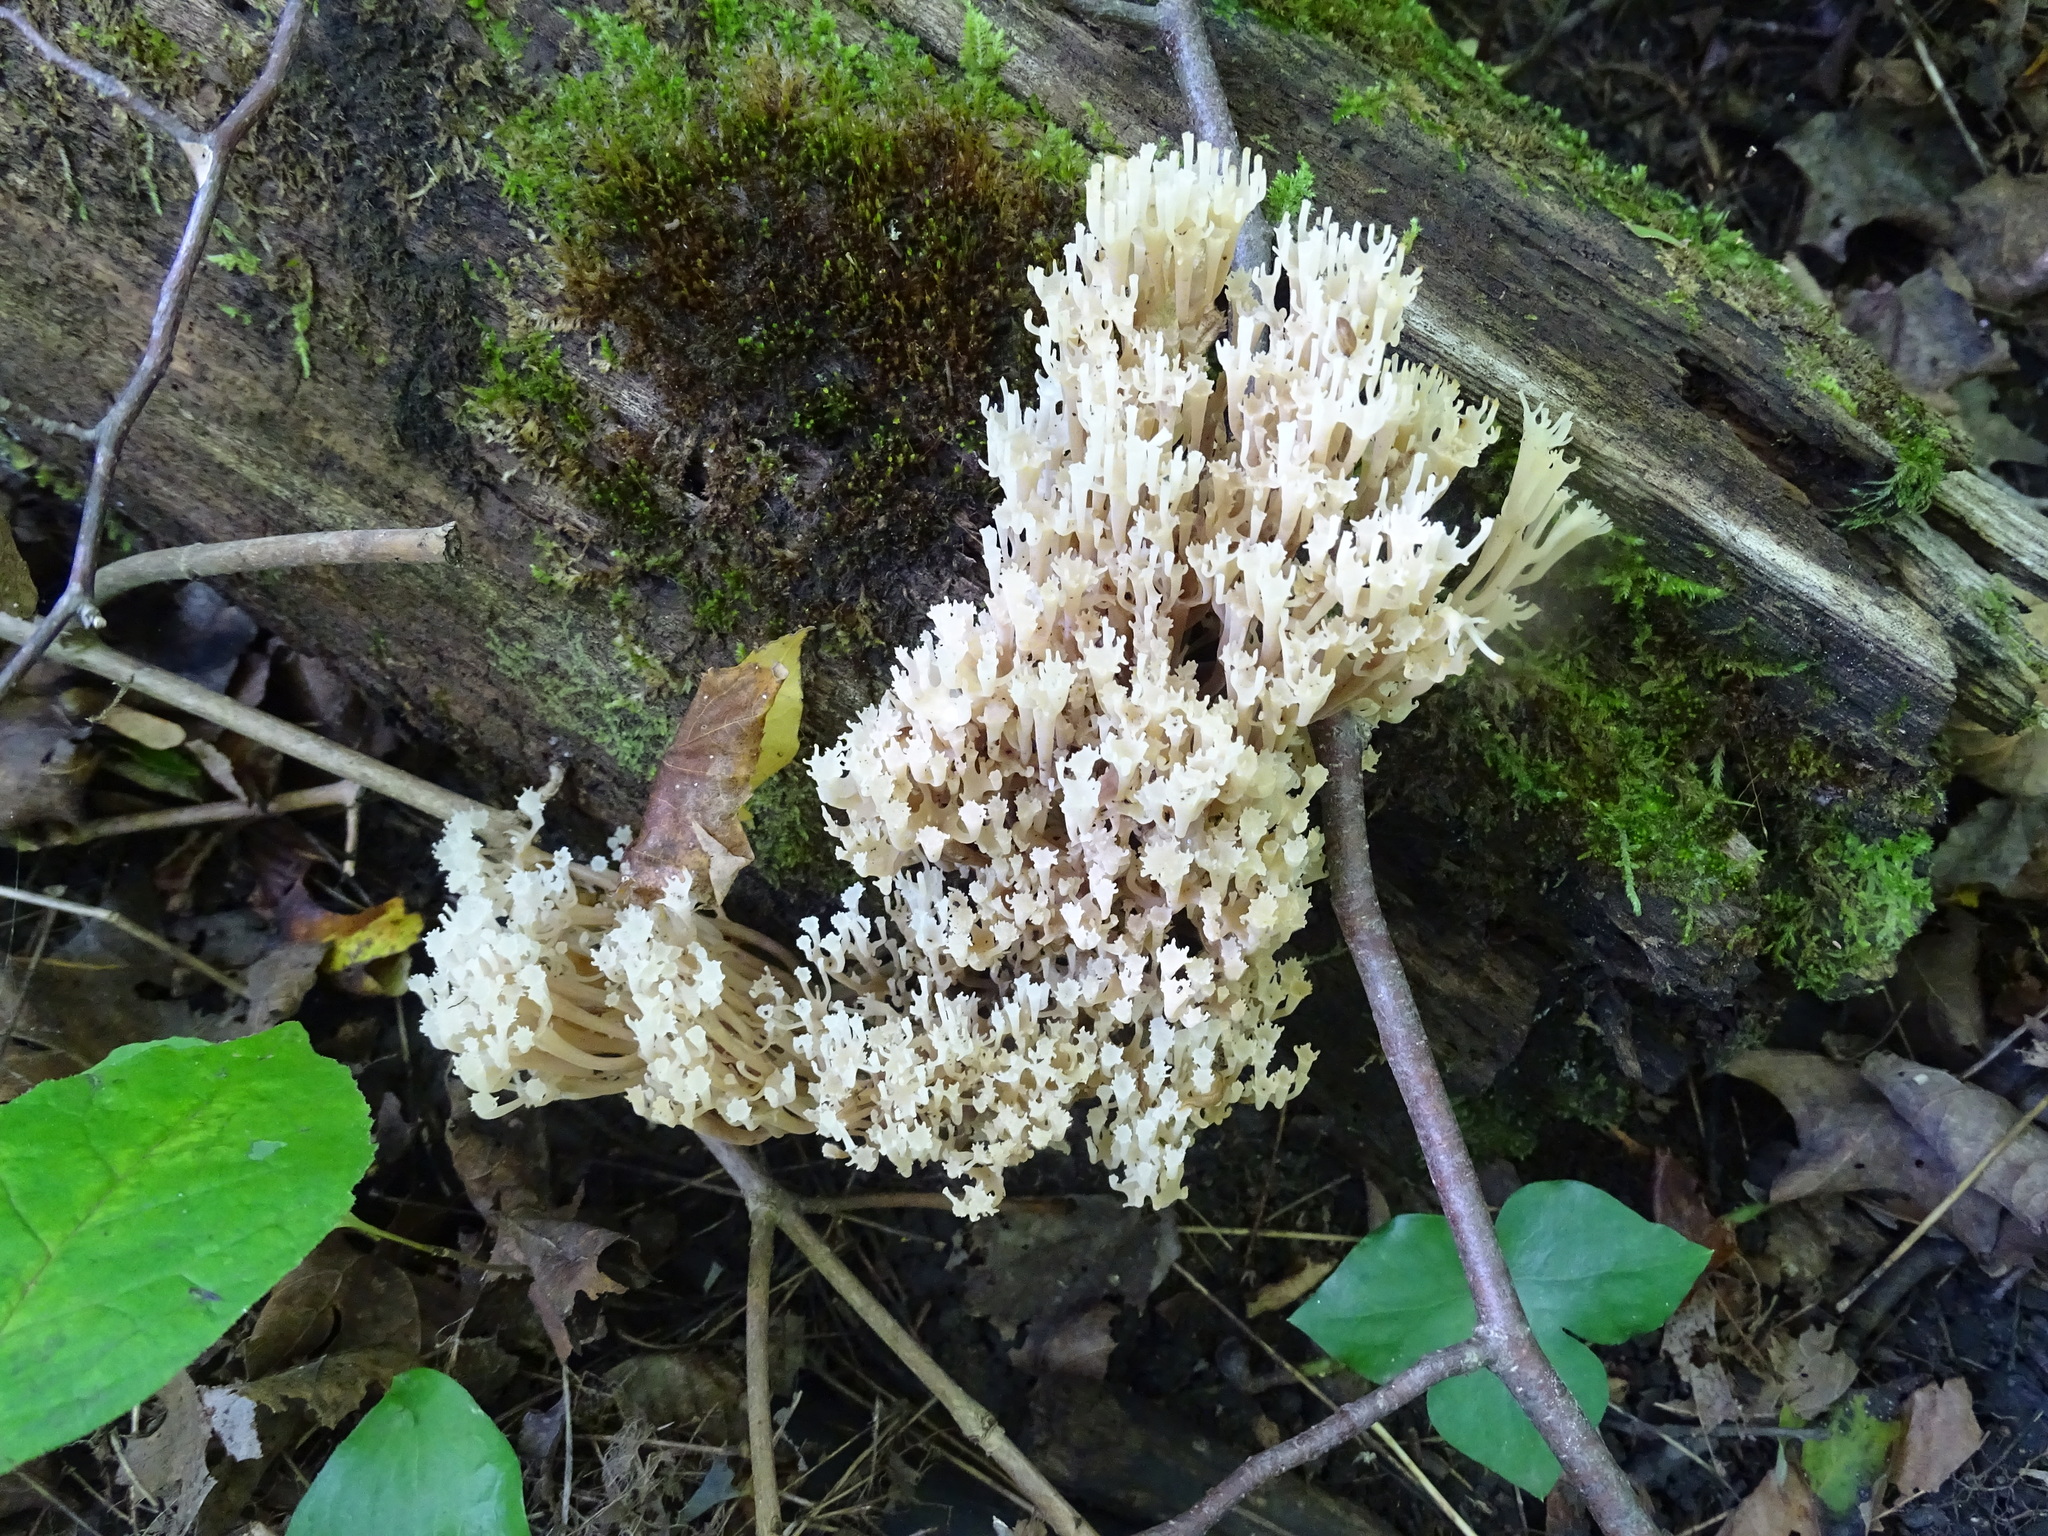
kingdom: Fungi
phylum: Basidiomycota
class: Agaricomycetes
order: Russulales
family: Auriscalpiaceae
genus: Artomyces
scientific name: Artomyces pyxidatus
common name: Crown-tipped coral fungus
